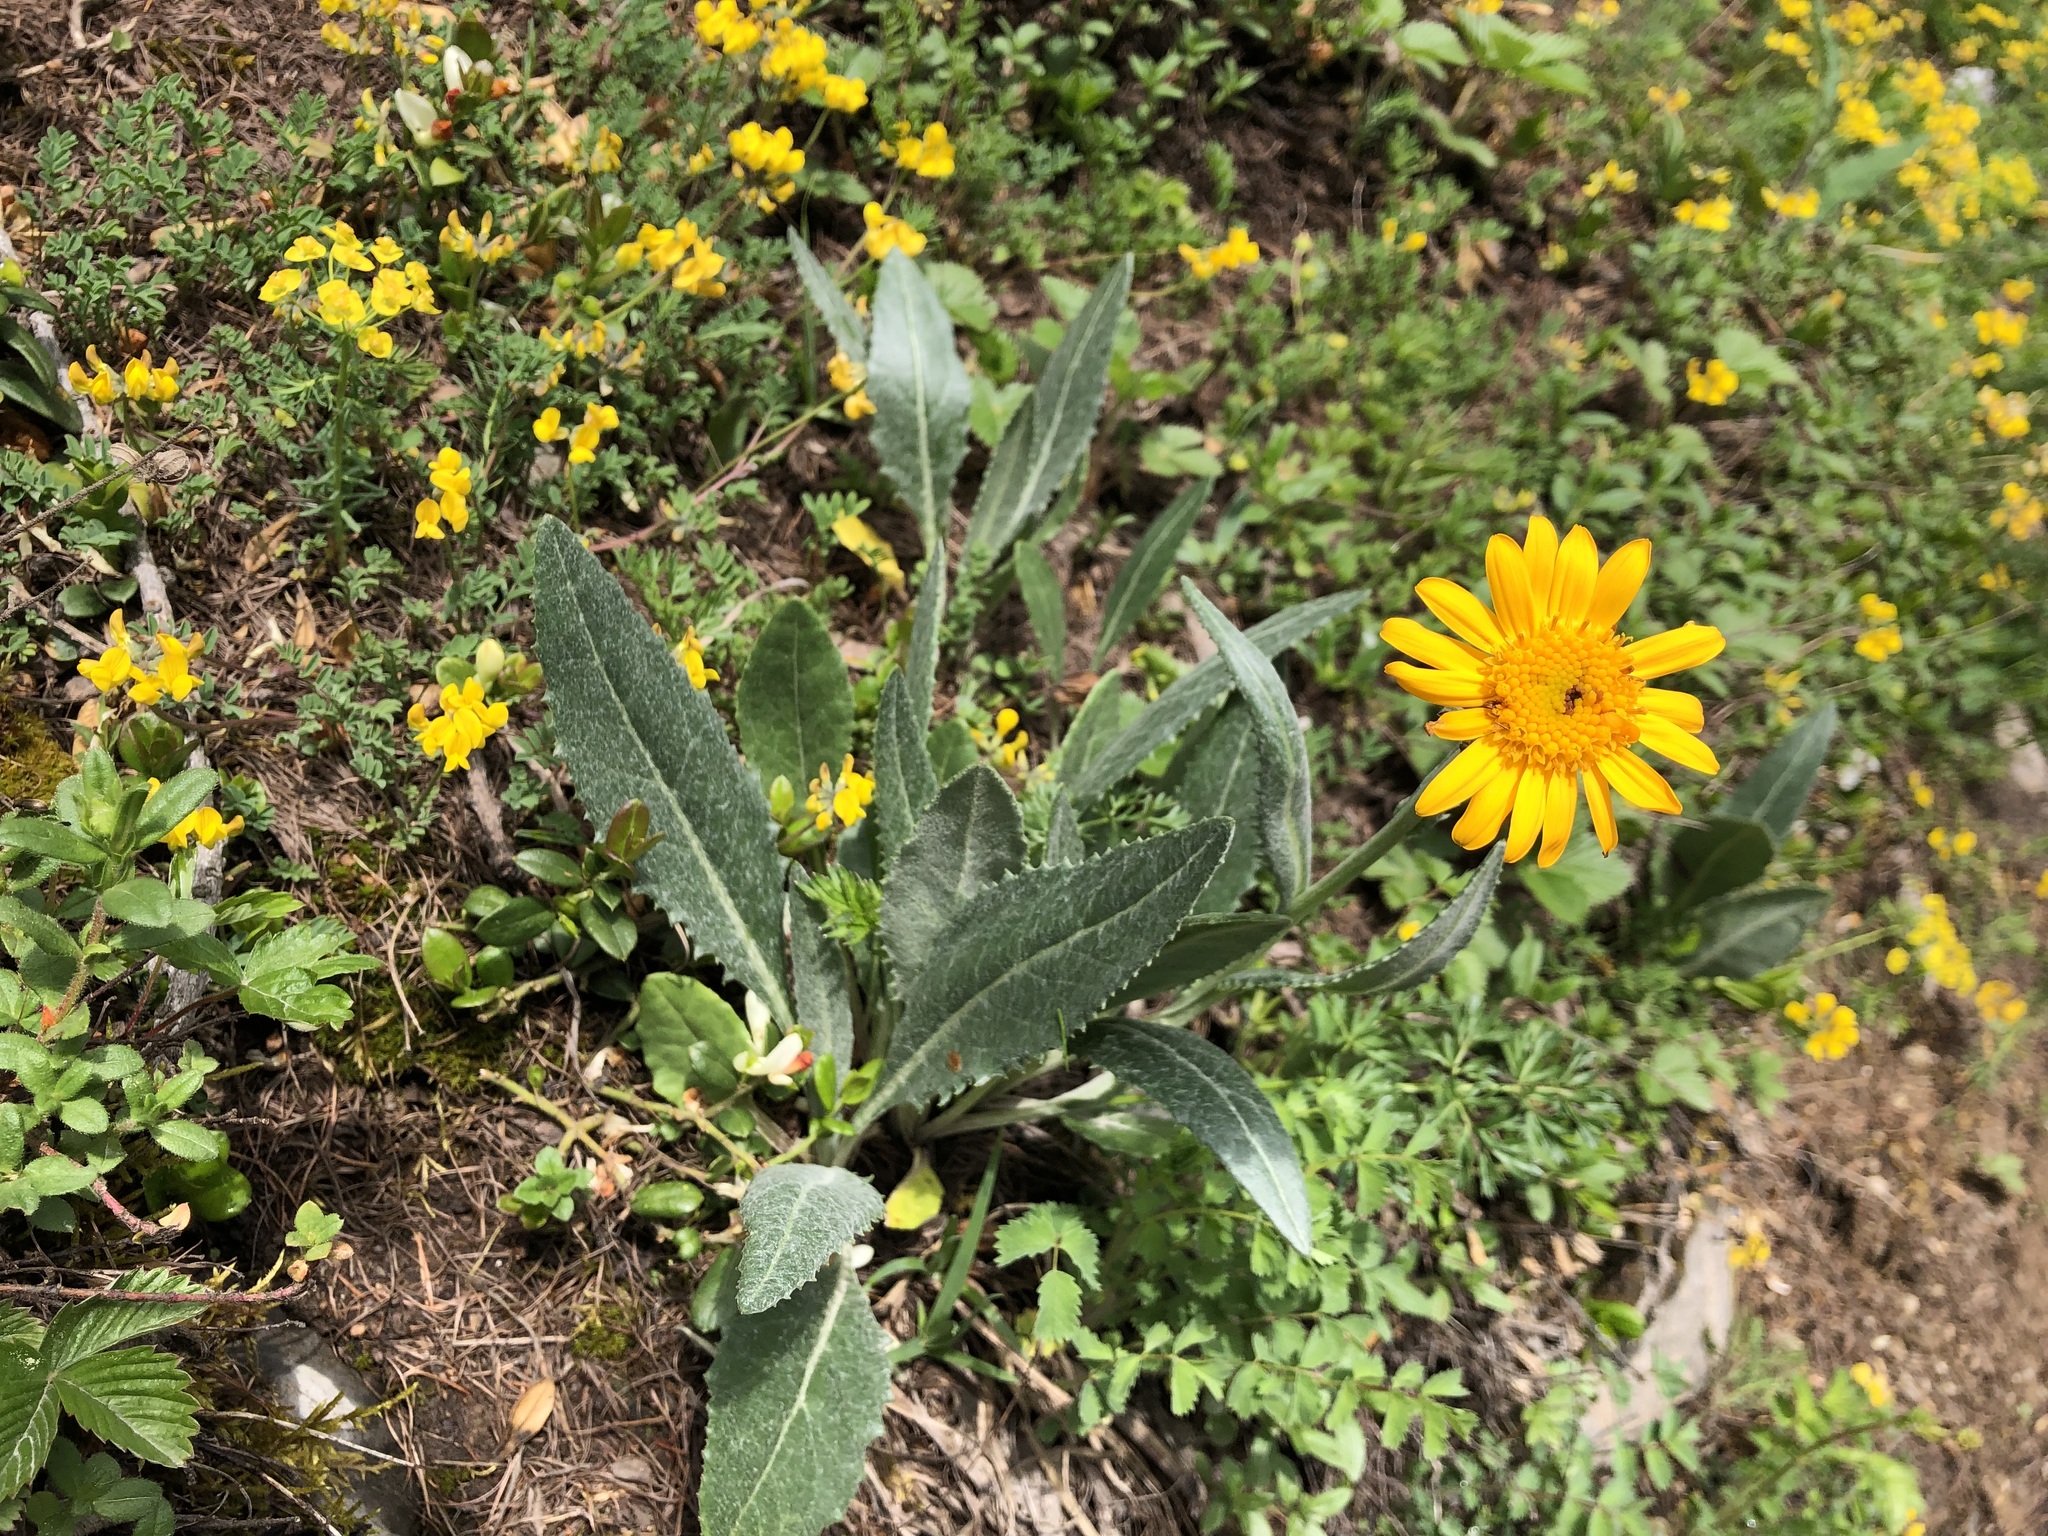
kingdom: Plantae
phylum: Tracheophyta
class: Magnoliopsida
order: Asterales
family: Asteraceae
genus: Senecio
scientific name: Senecio doronicum
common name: Chamois ragwort
